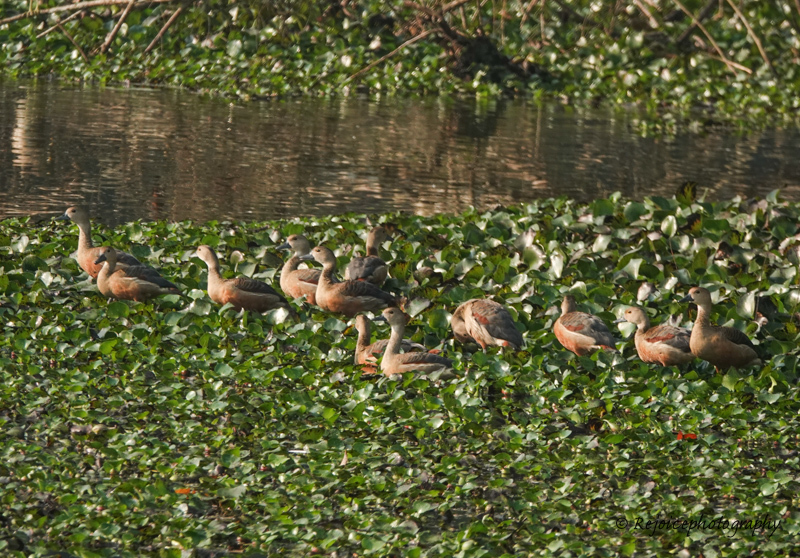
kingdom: Animalia
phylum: Chordata
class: Aves
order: Anseriformes
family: Anatidae
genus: Dendrocygna
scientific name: Dendrocygna javanica
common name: Lesser whistling-duck
